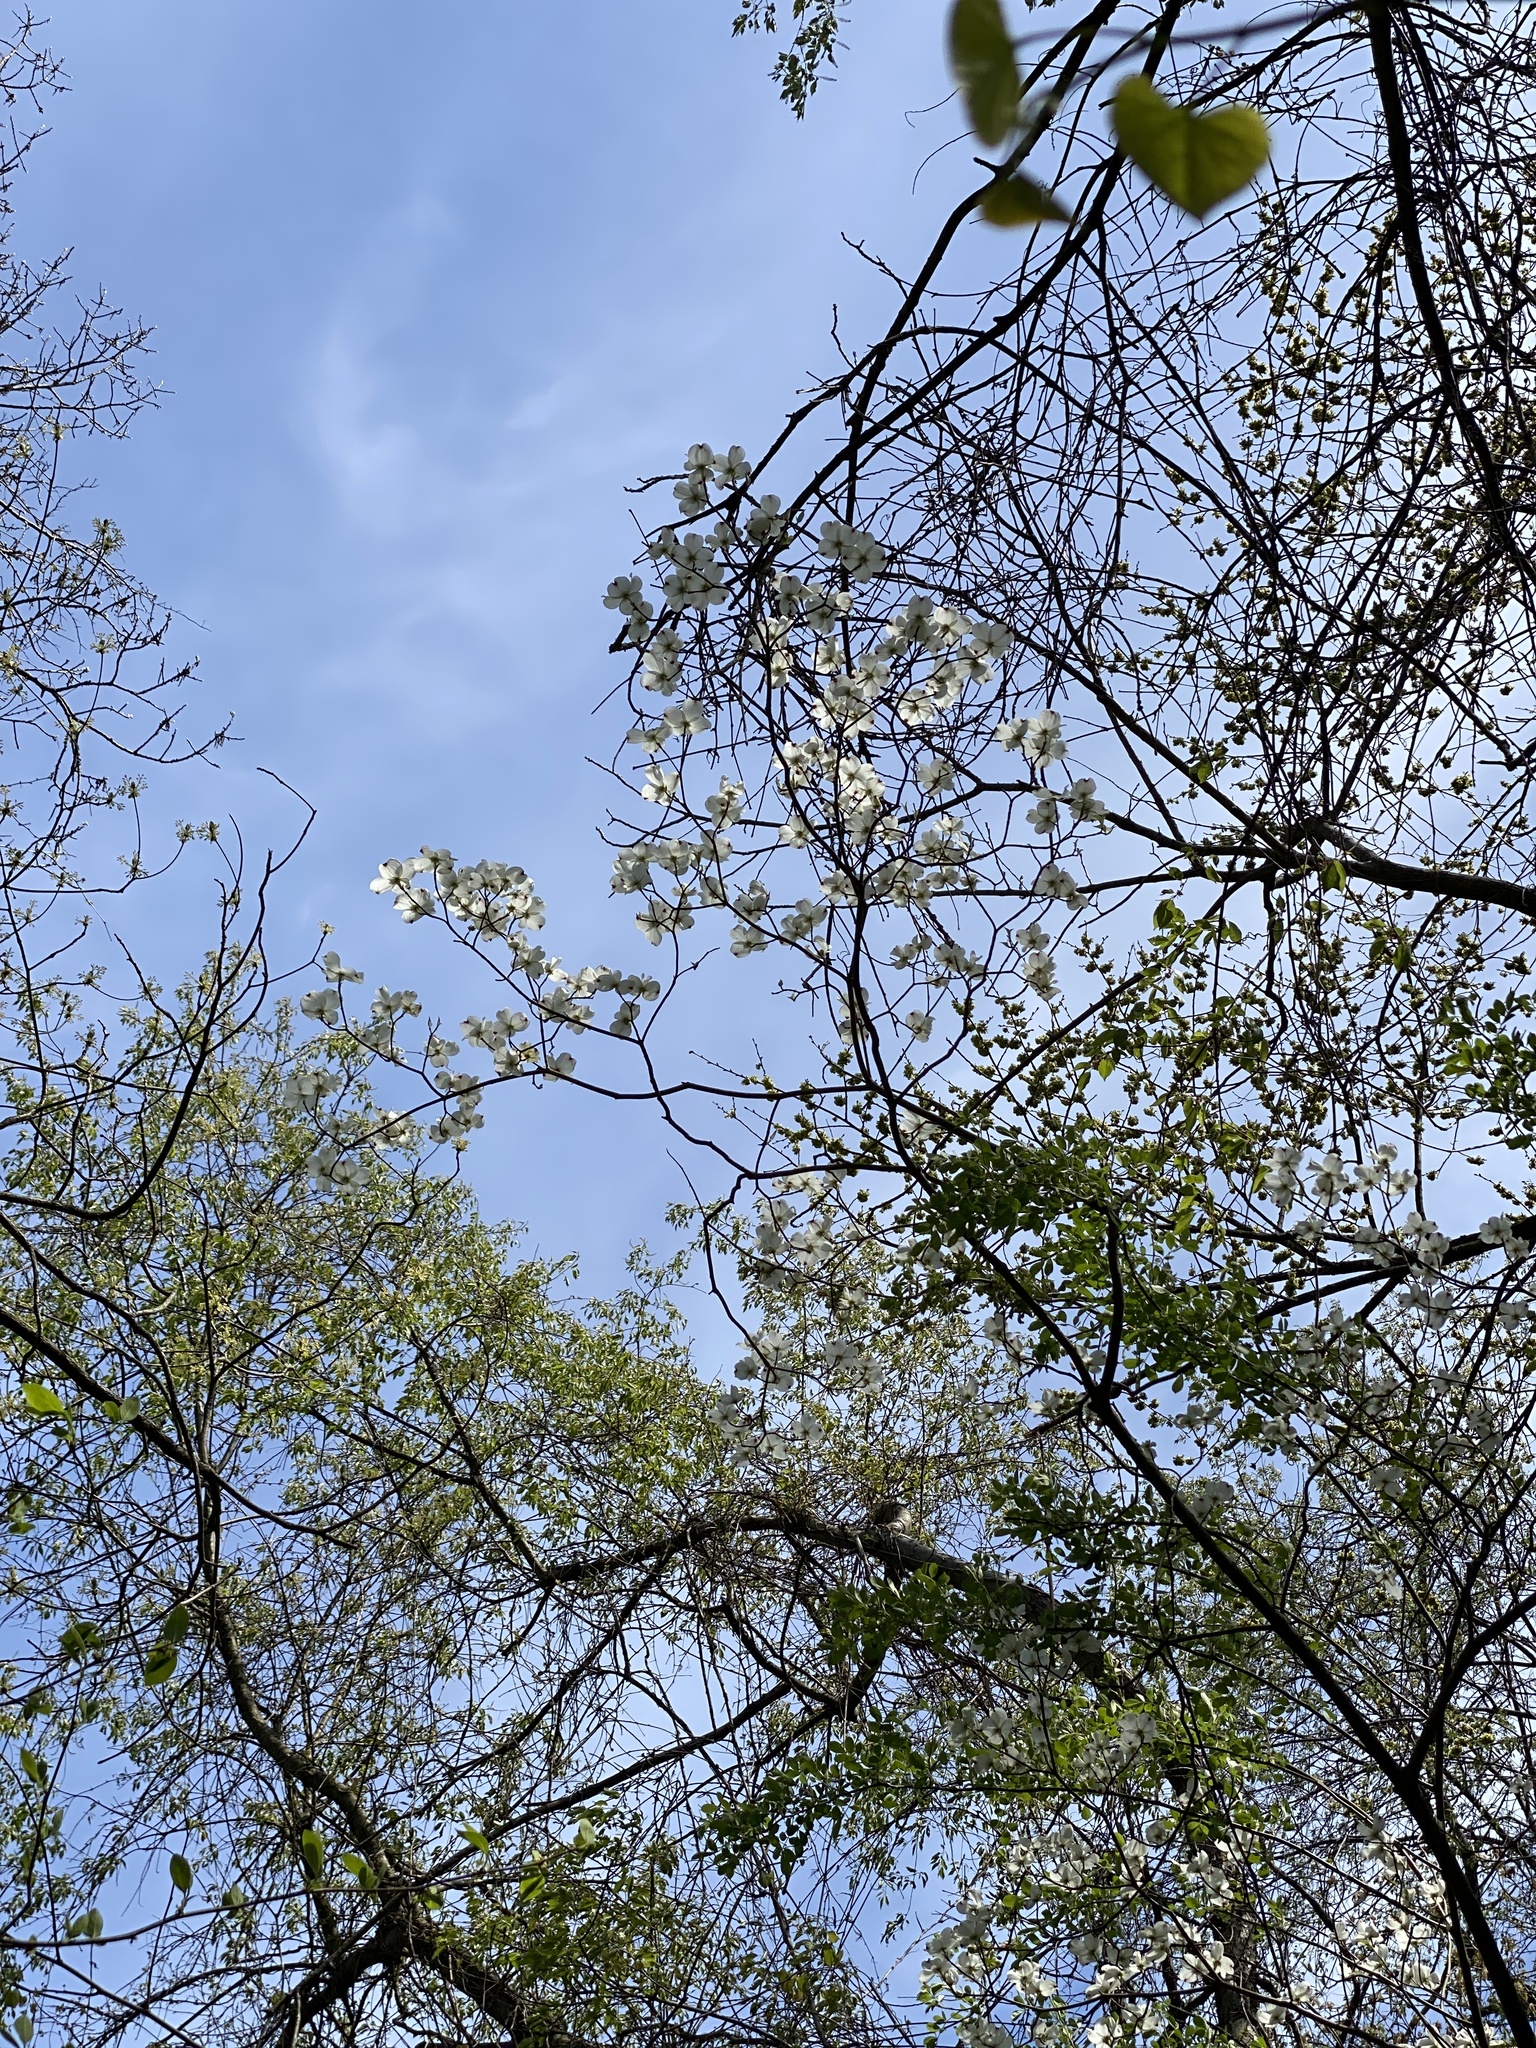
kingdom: Plantae
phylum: Tracheophyta
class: Magnoliopsida
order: Cornales
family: Cornaceae
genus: Cornus
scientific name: Cornus florida
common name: Flowering dogwood
